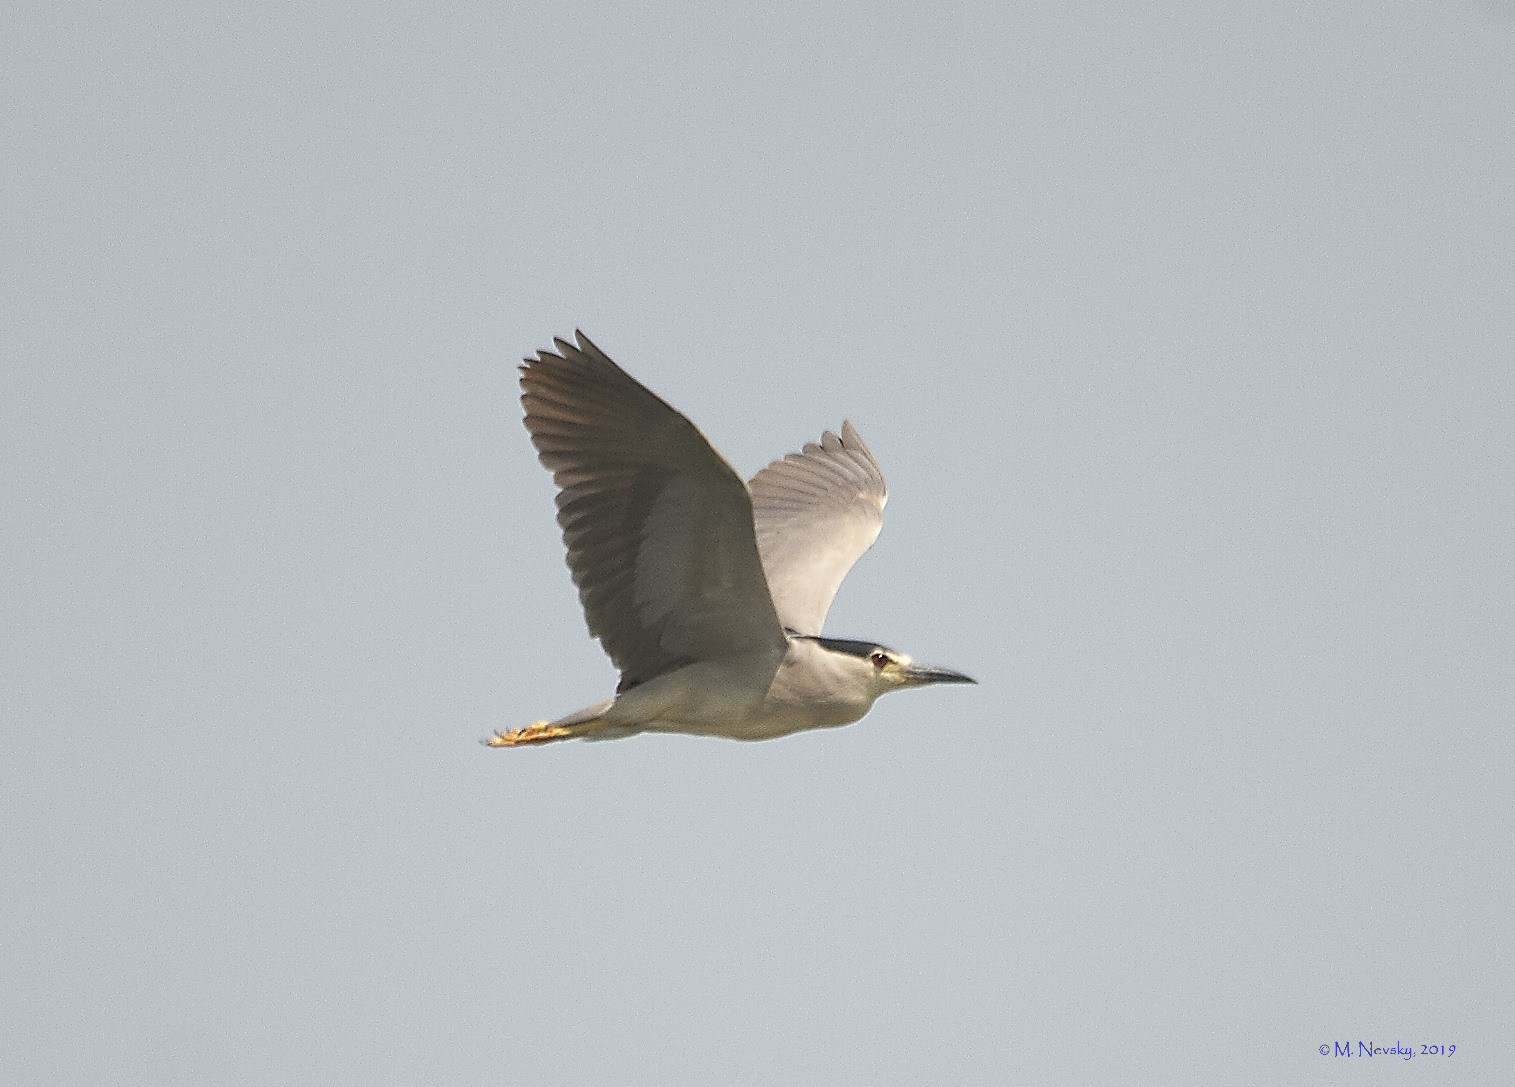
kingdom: Animalia
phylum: Chordata
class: Aves
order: Pelecaniformes
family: Ardeidae
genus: Nycticorax
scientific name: Nycticorax nycticorax
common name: Black-crowned night heron
